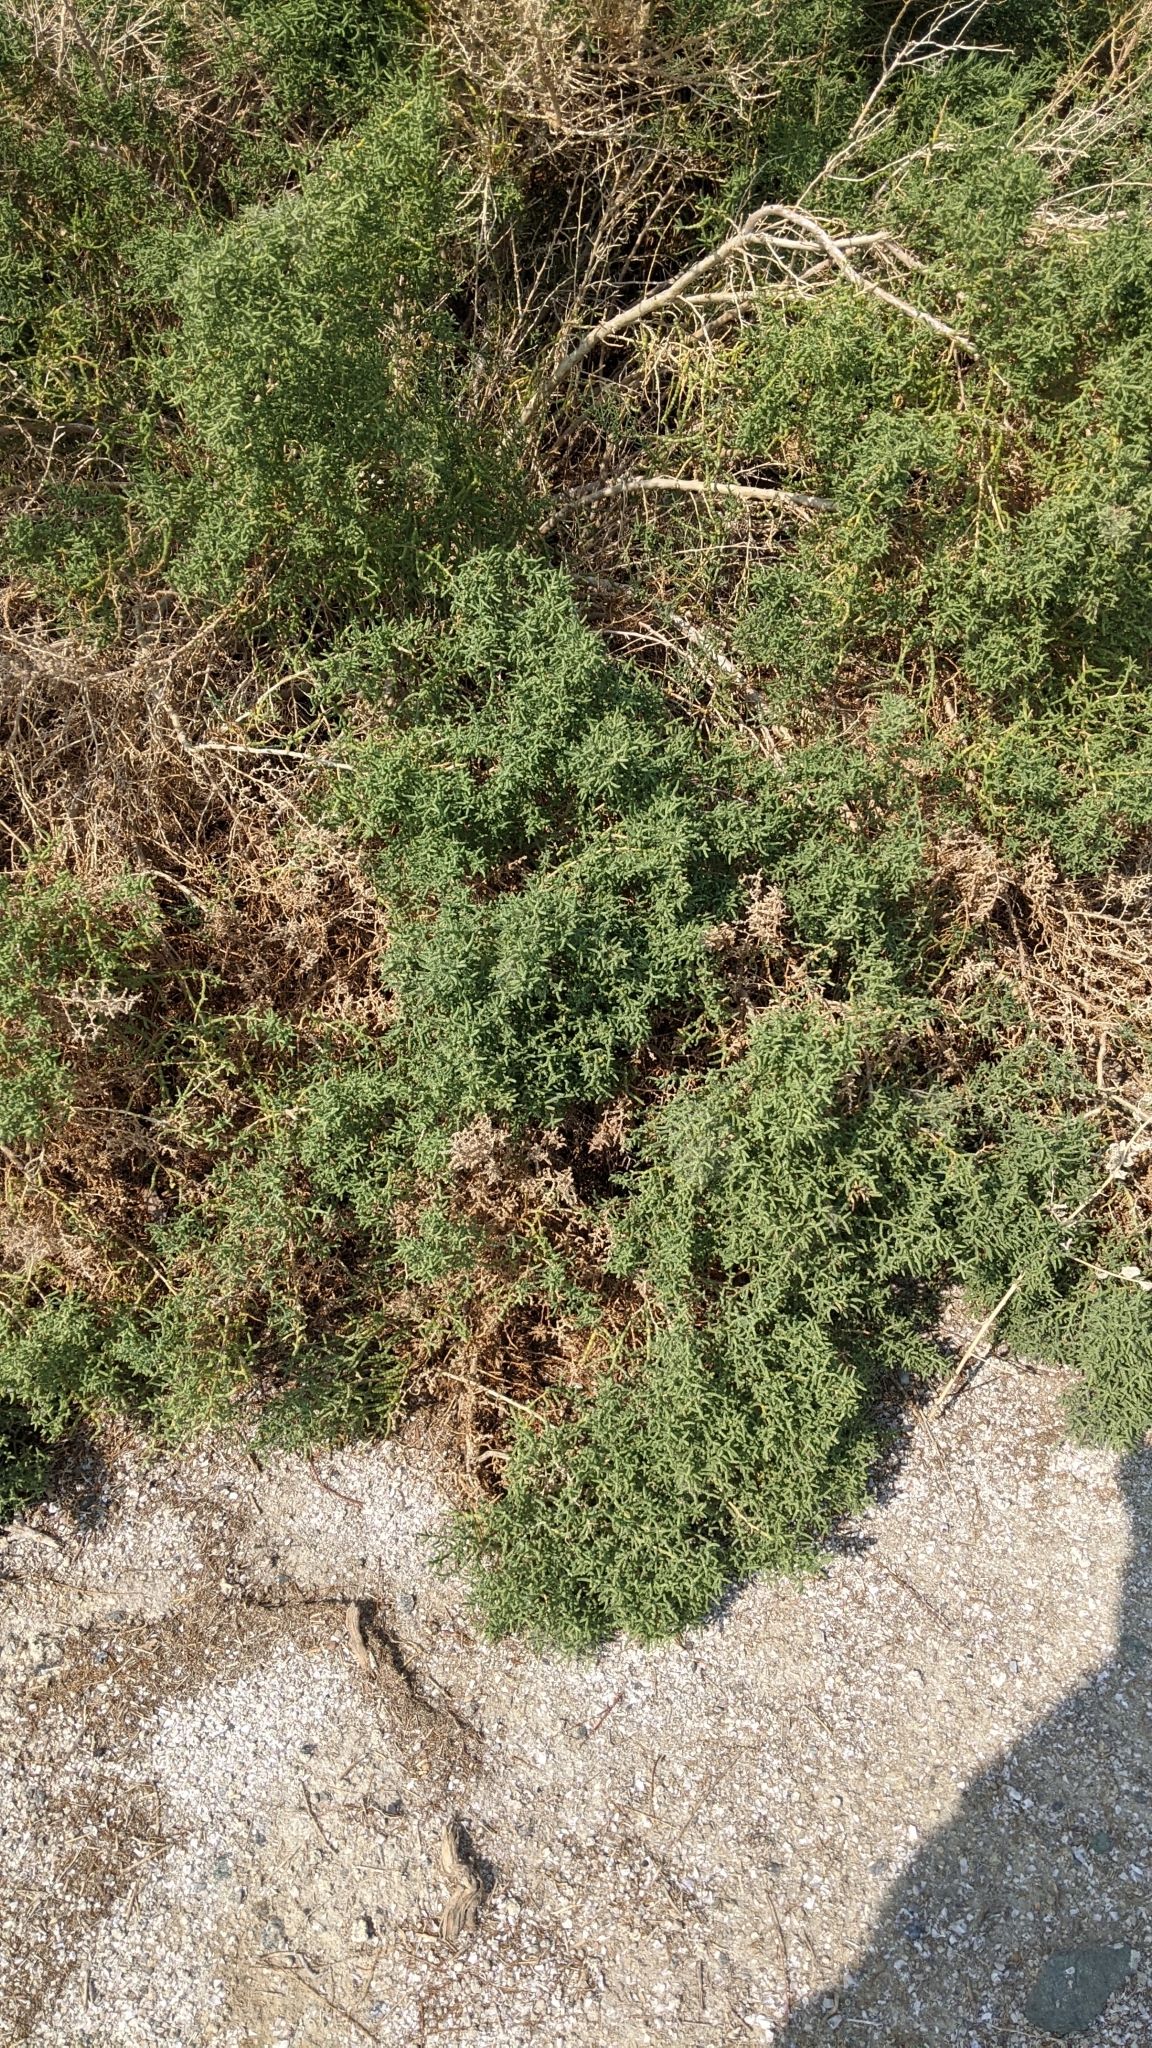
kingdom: Plantae
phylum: Tracheophyta
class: Magnoliopsida
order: Caryophyllales
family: Amaranthaceae
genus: Allenrolfea
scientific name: Allenrolfea occidentalis
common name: Iodine-bush
